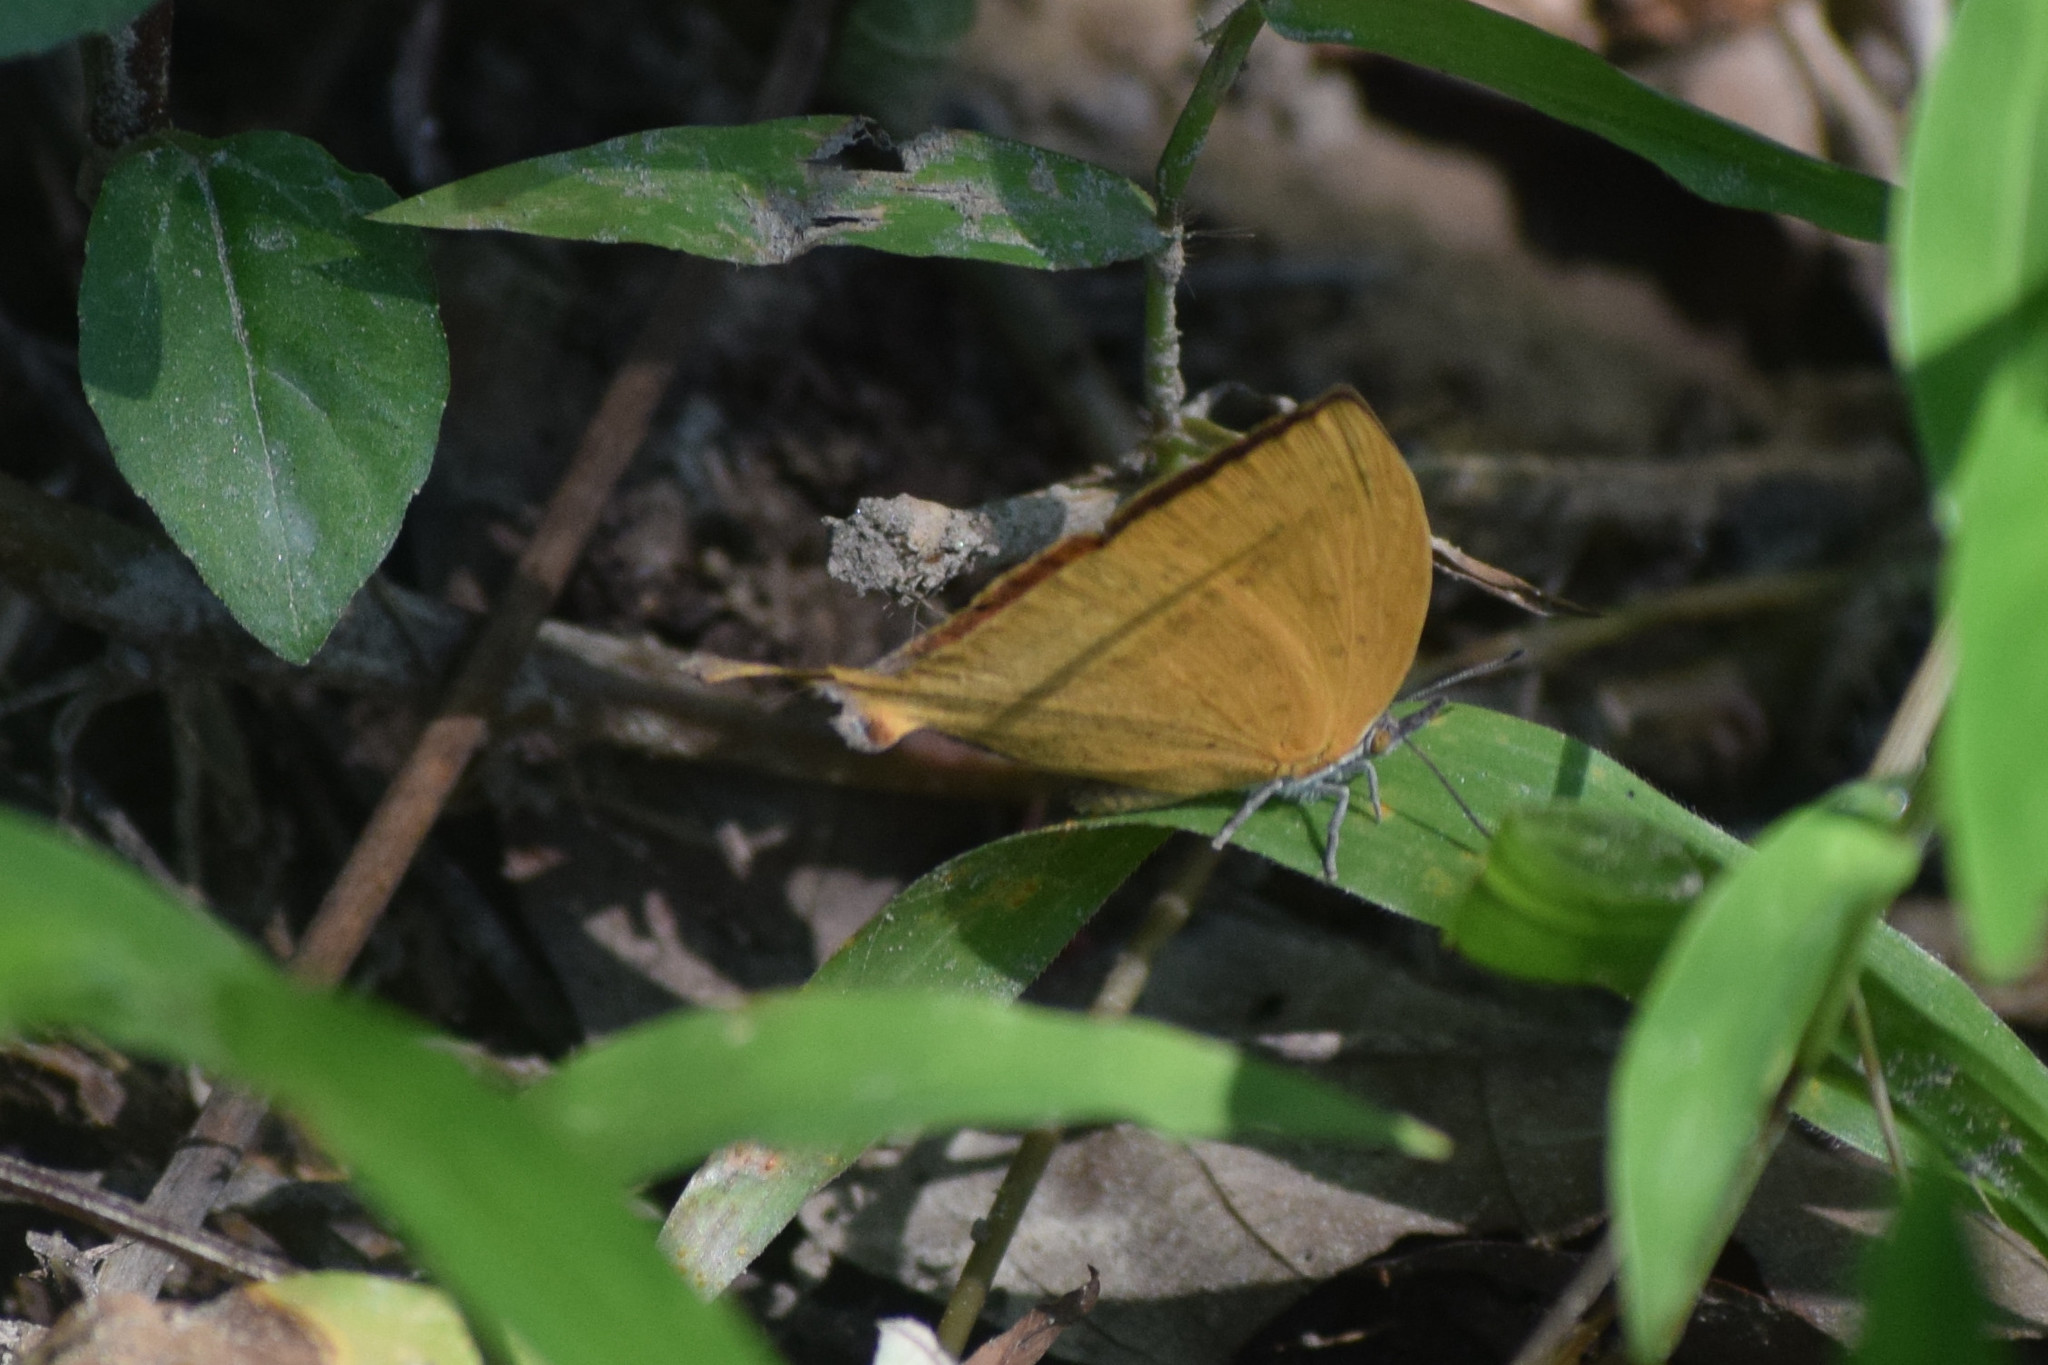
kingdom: Animalia
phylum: Arthropoda
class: Insecta
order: Lepidoptera
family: Lycaenidae
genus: Loxura
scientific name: Loxura atymnus
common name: Common yamfly
